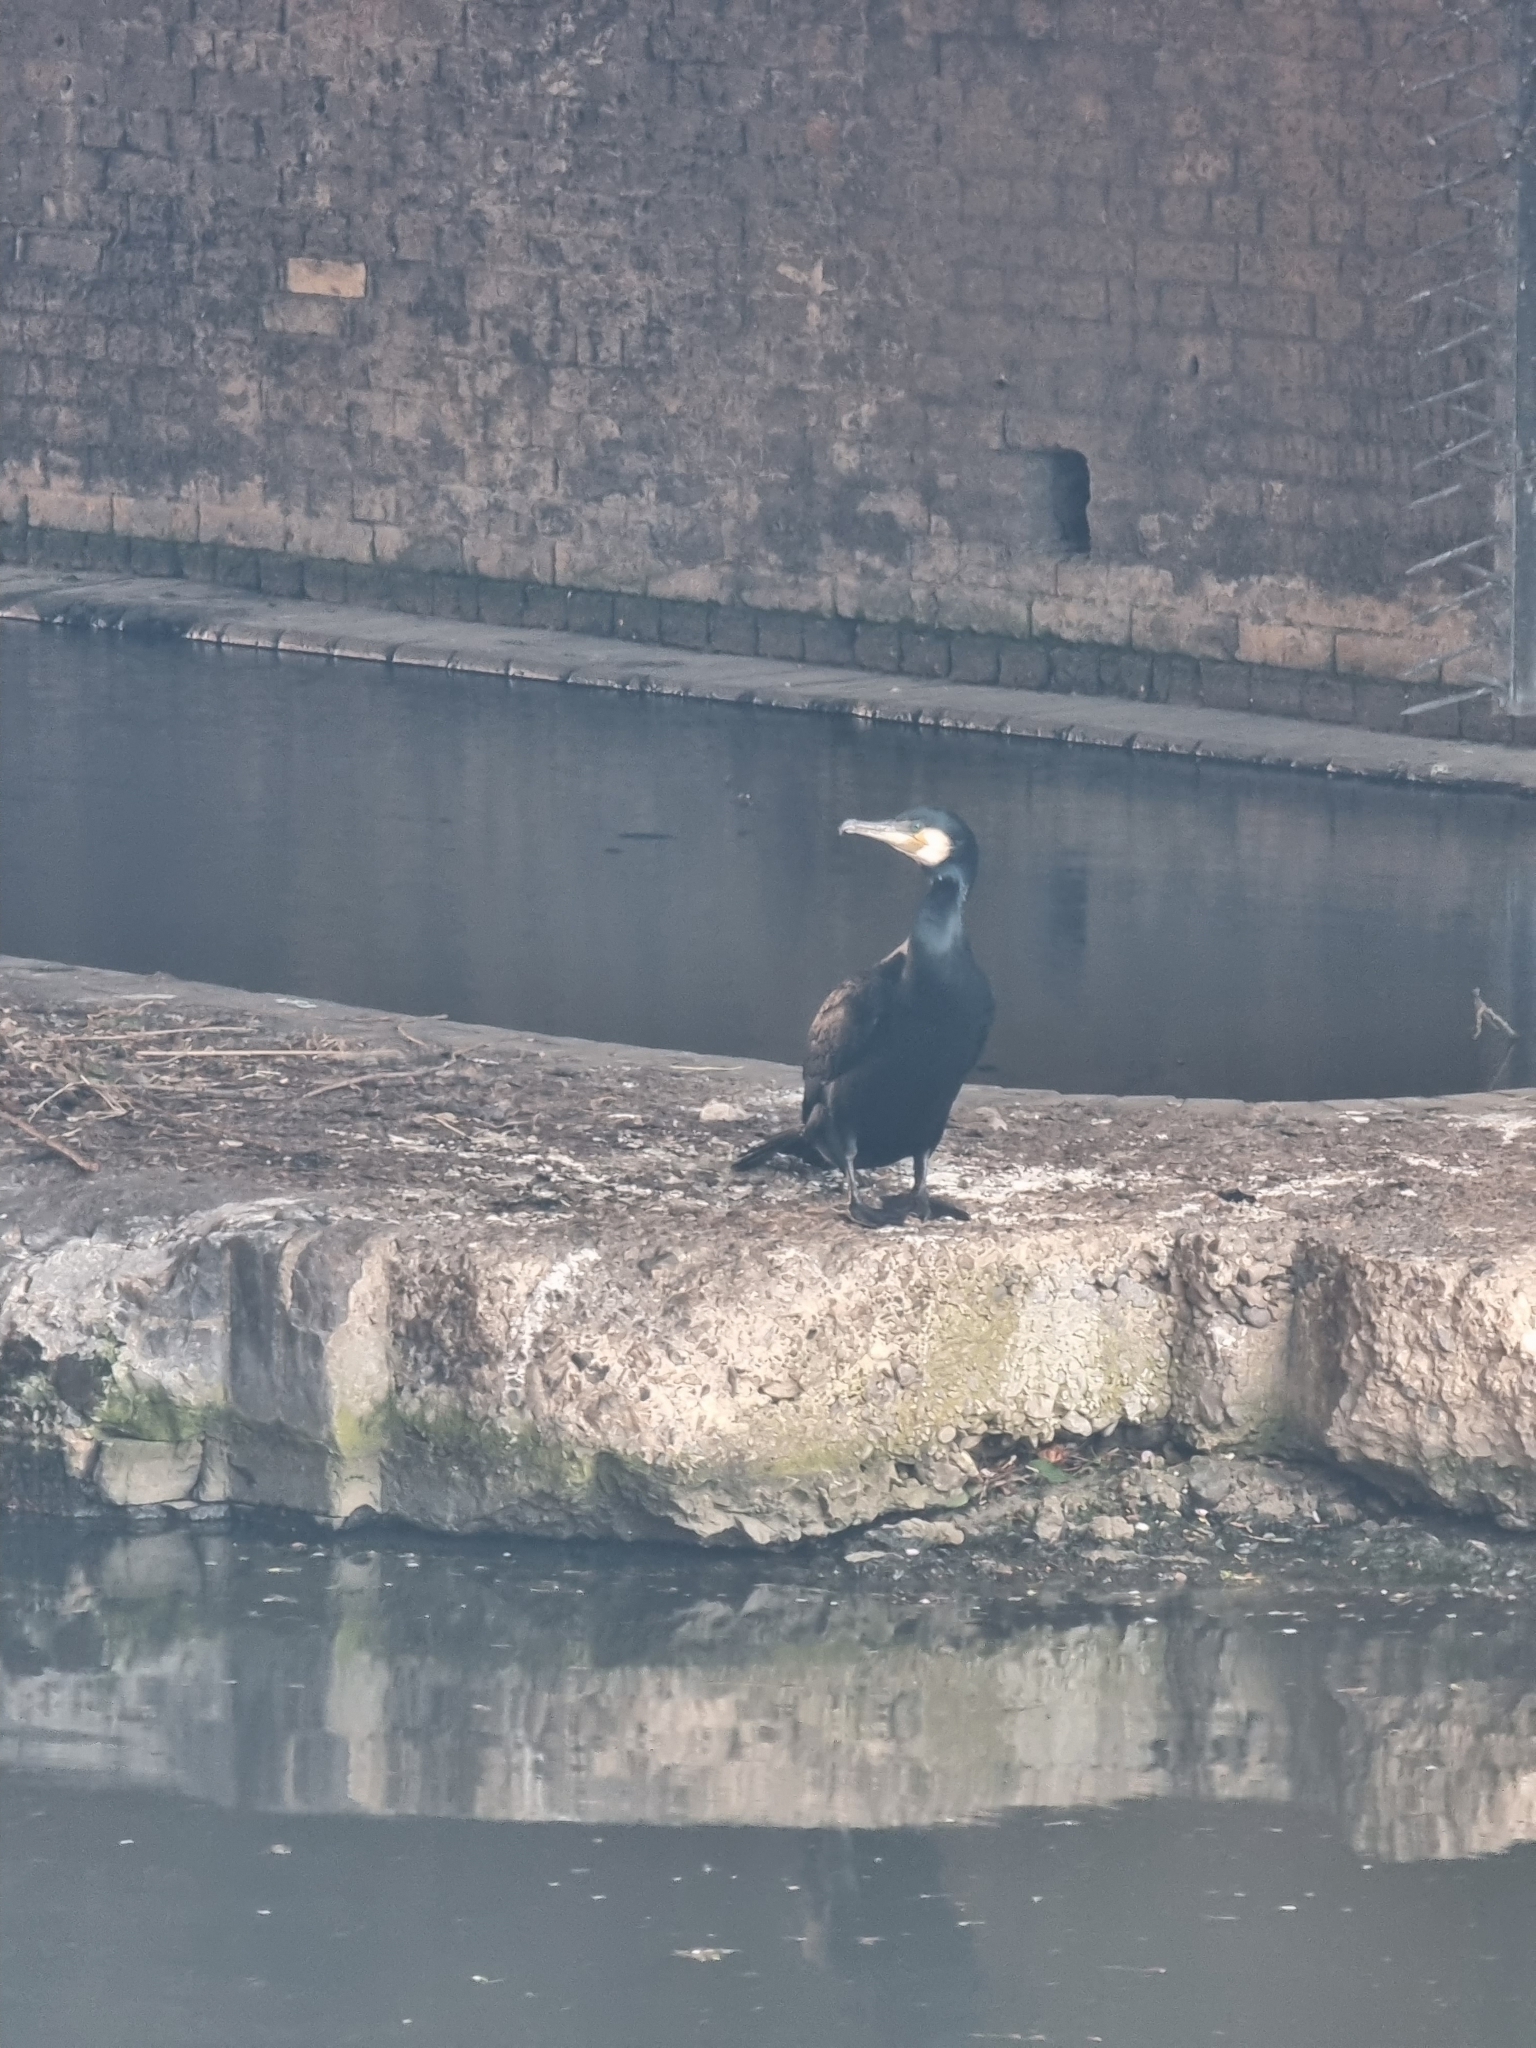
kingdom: Animalia
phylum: Chordata
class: Aves
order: Suliformes
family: Phalacrocoracidae
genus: Phalacrocorax
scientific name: Phalacrocorax carbo
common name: Great cormorant
